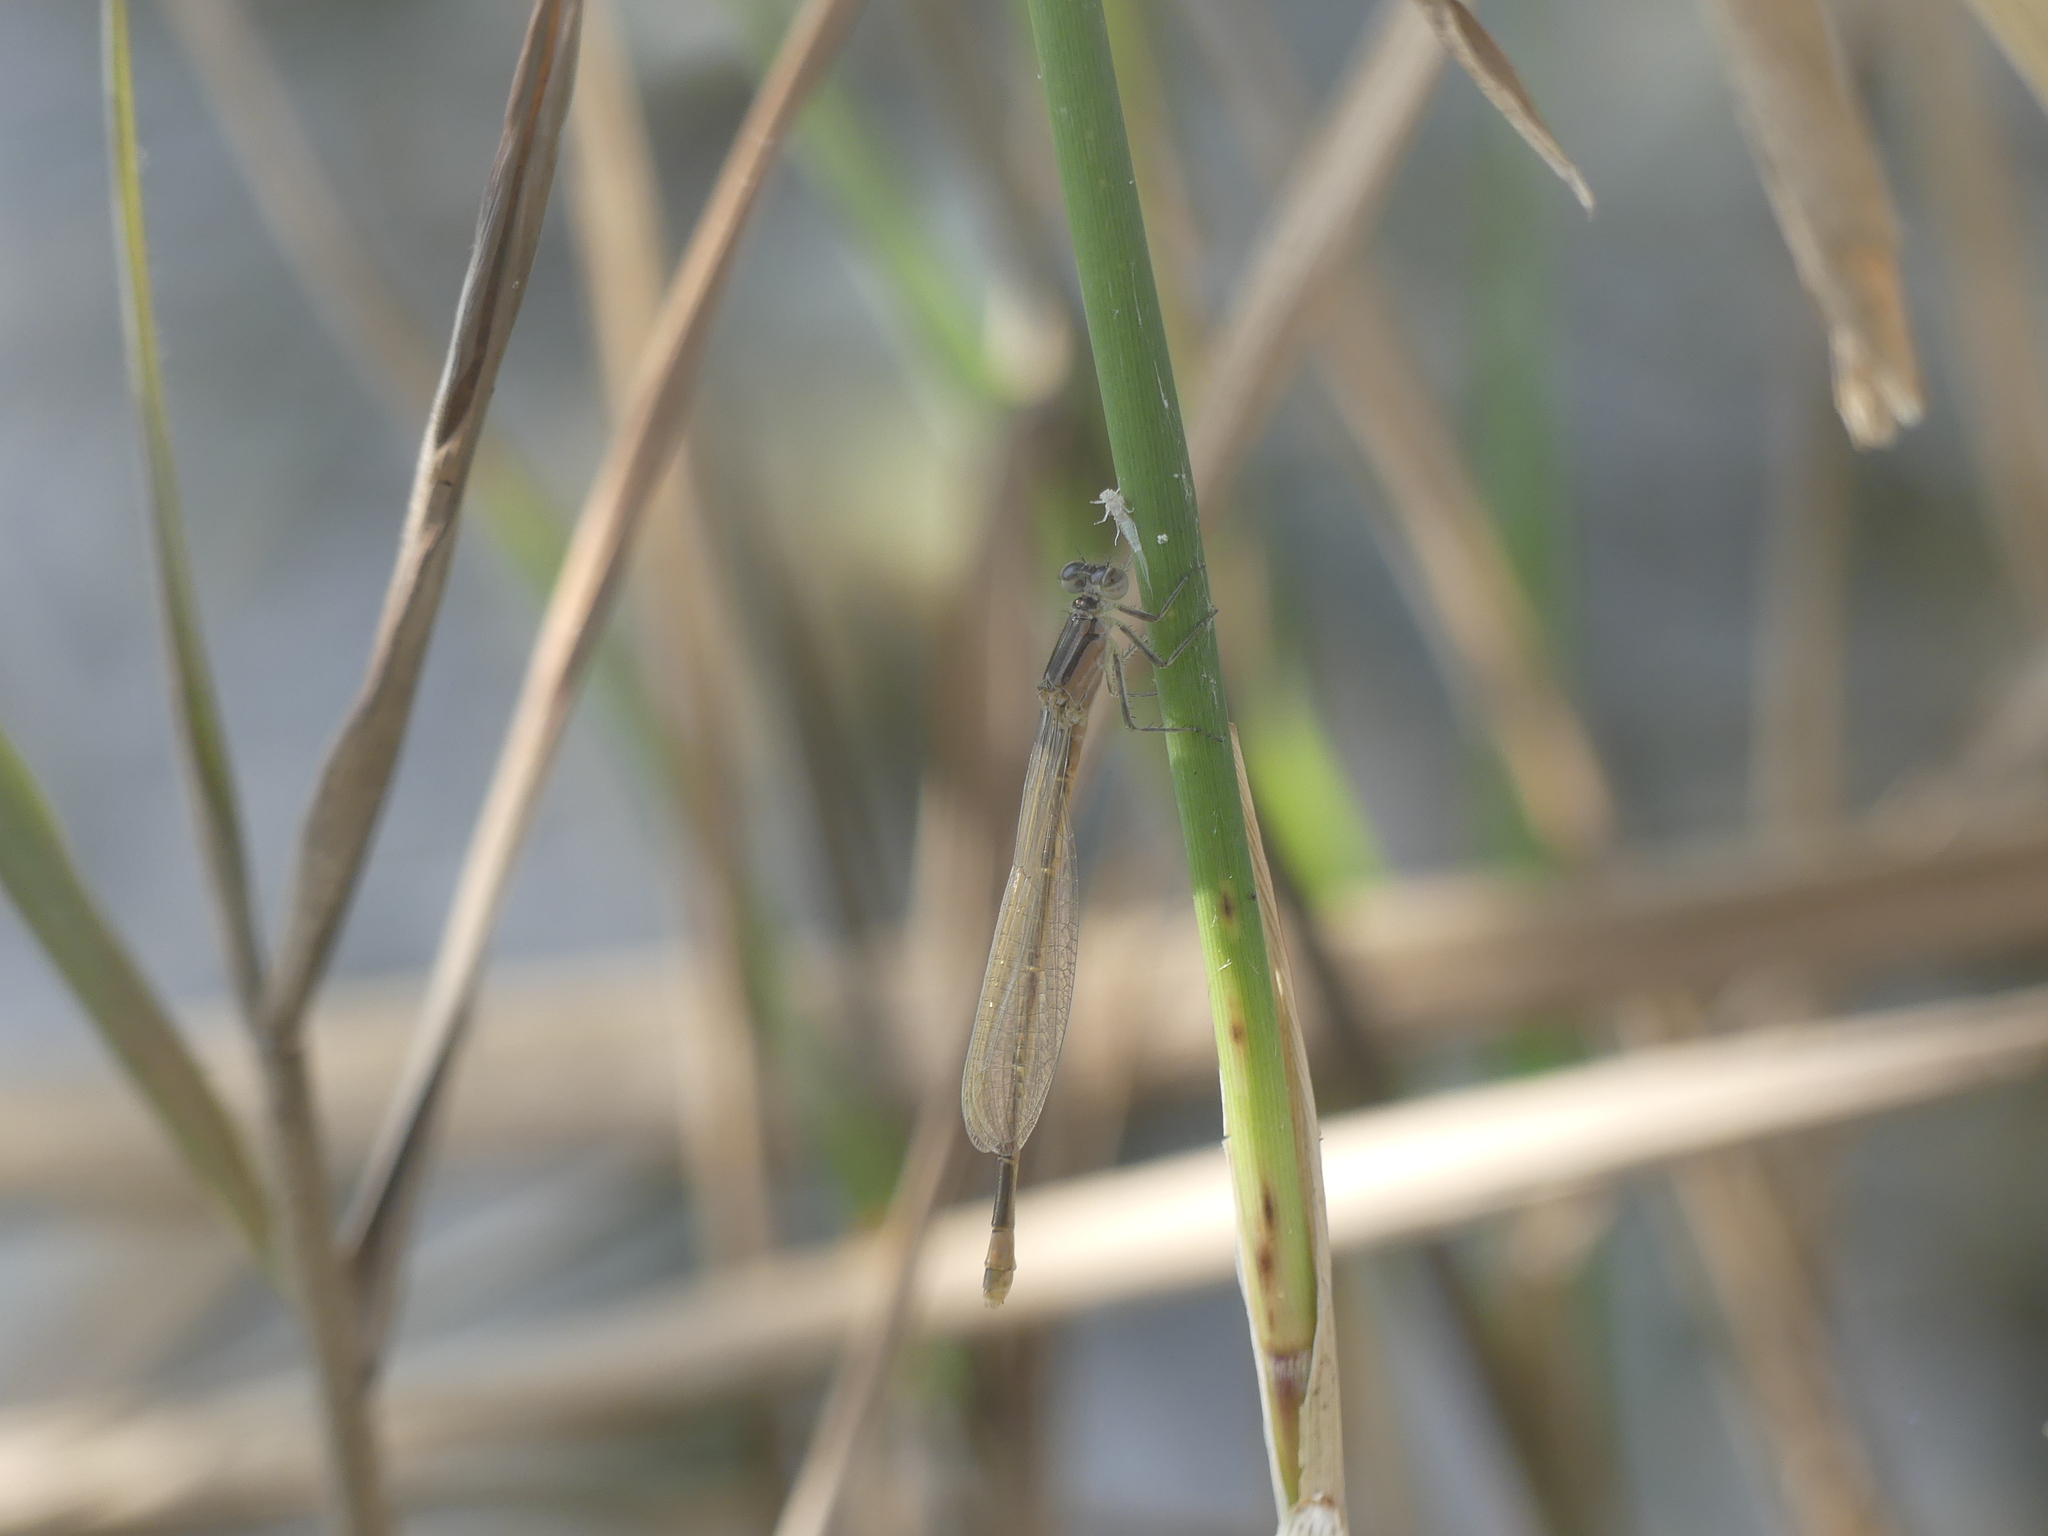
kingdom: Animalia
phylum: Arthropoda
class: Insecta
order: Odonata
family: Coenagrionidae
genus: Ischnura
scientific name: Ischnura elegans
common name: Blue-tailed damselfly
